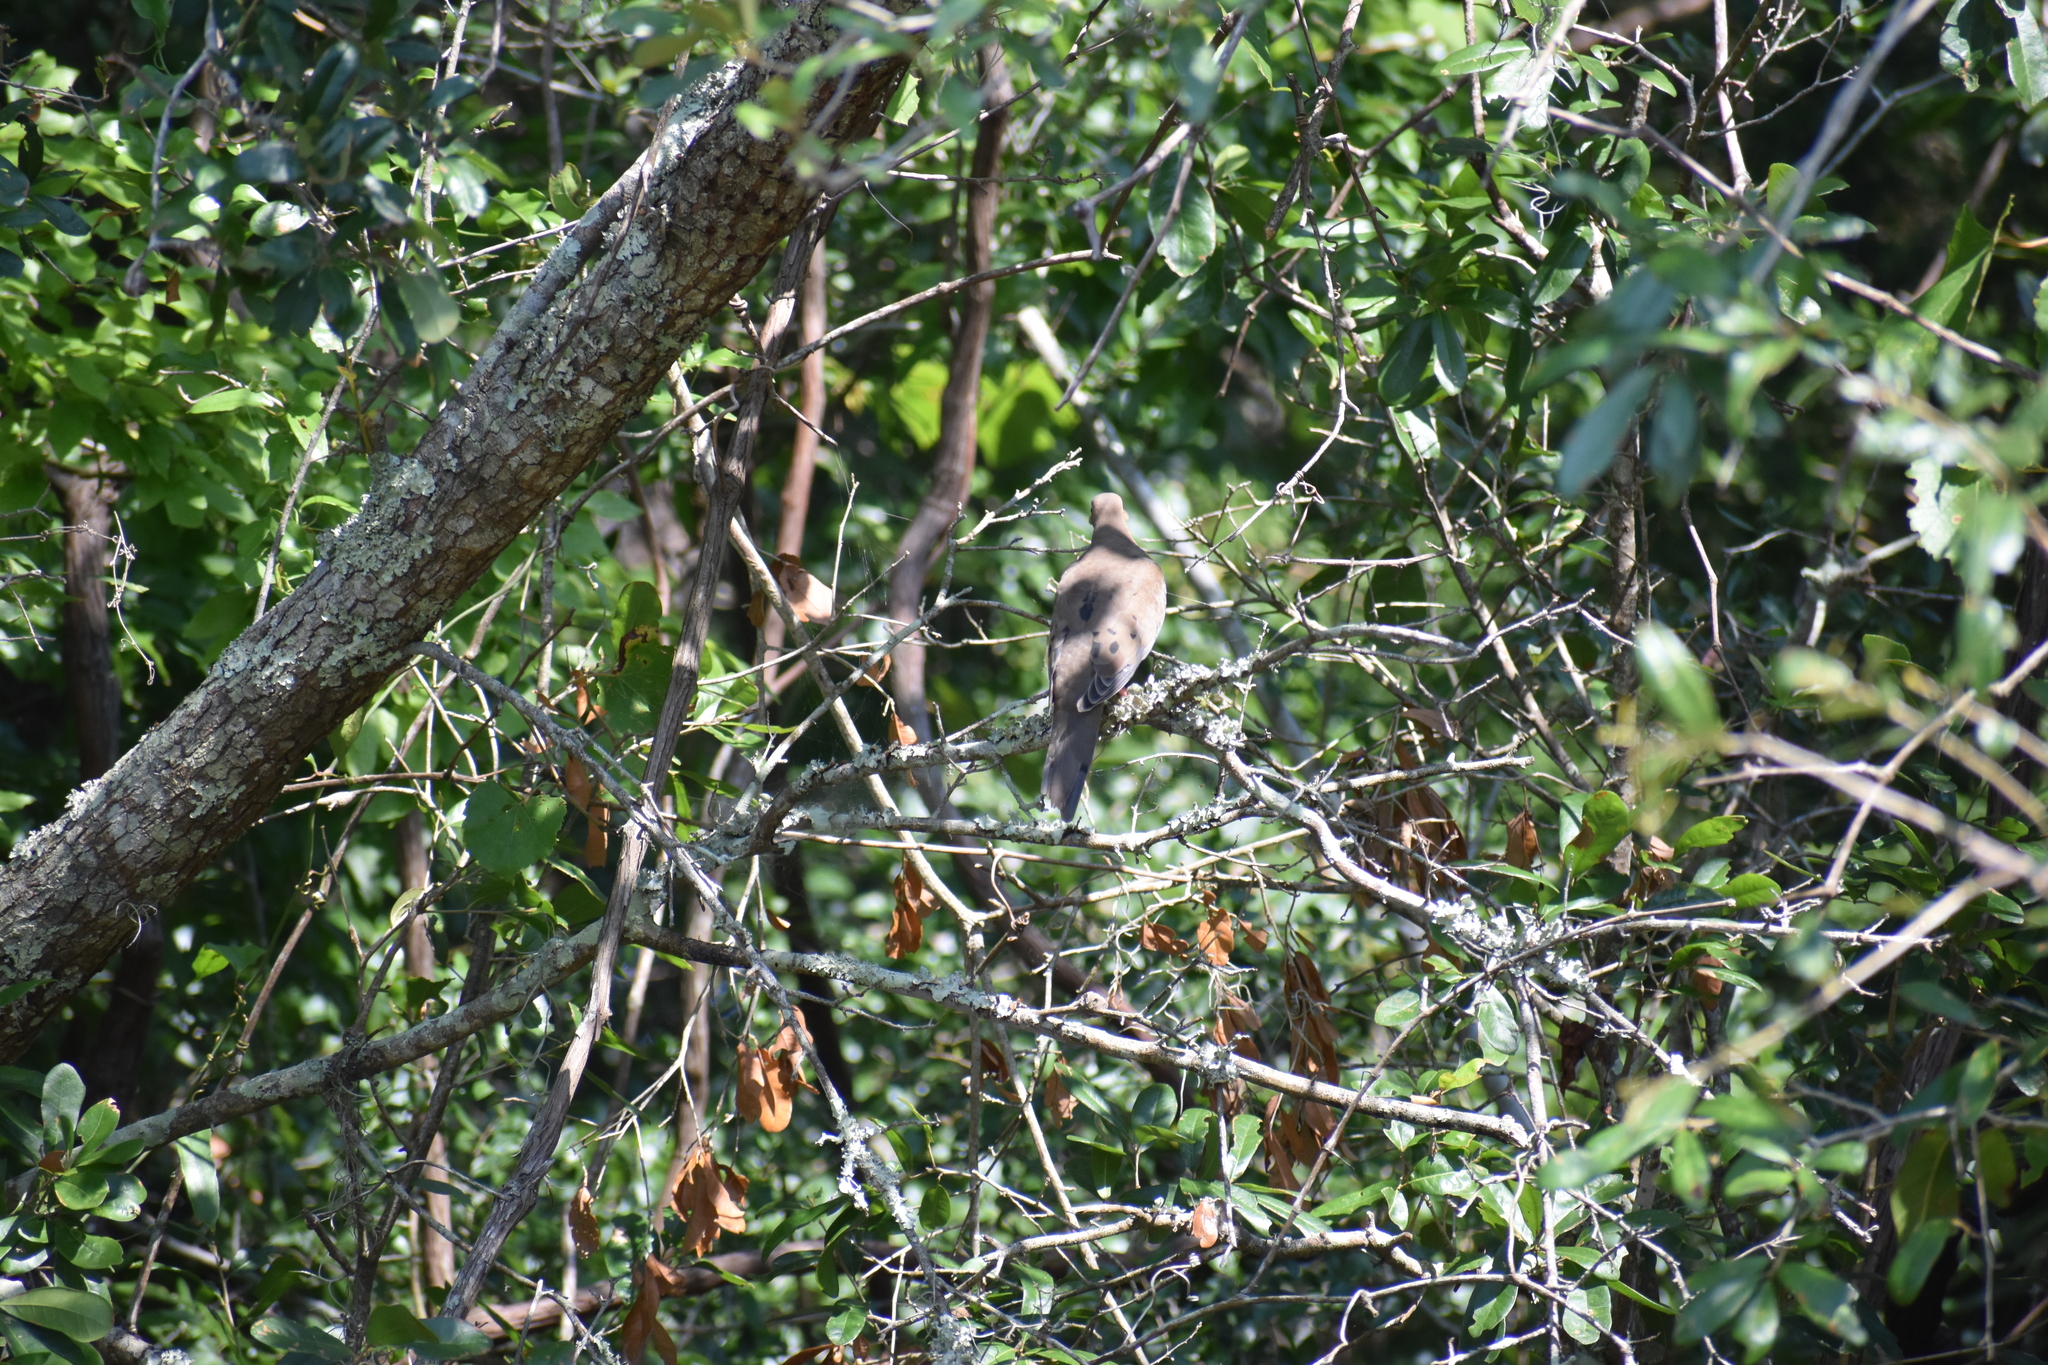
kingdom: Animalia
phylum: Chordata
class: Aves
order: Columbiformes
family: Columbidae
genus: Zenaida
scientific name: Zenaida macroura
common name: Mourning dove
